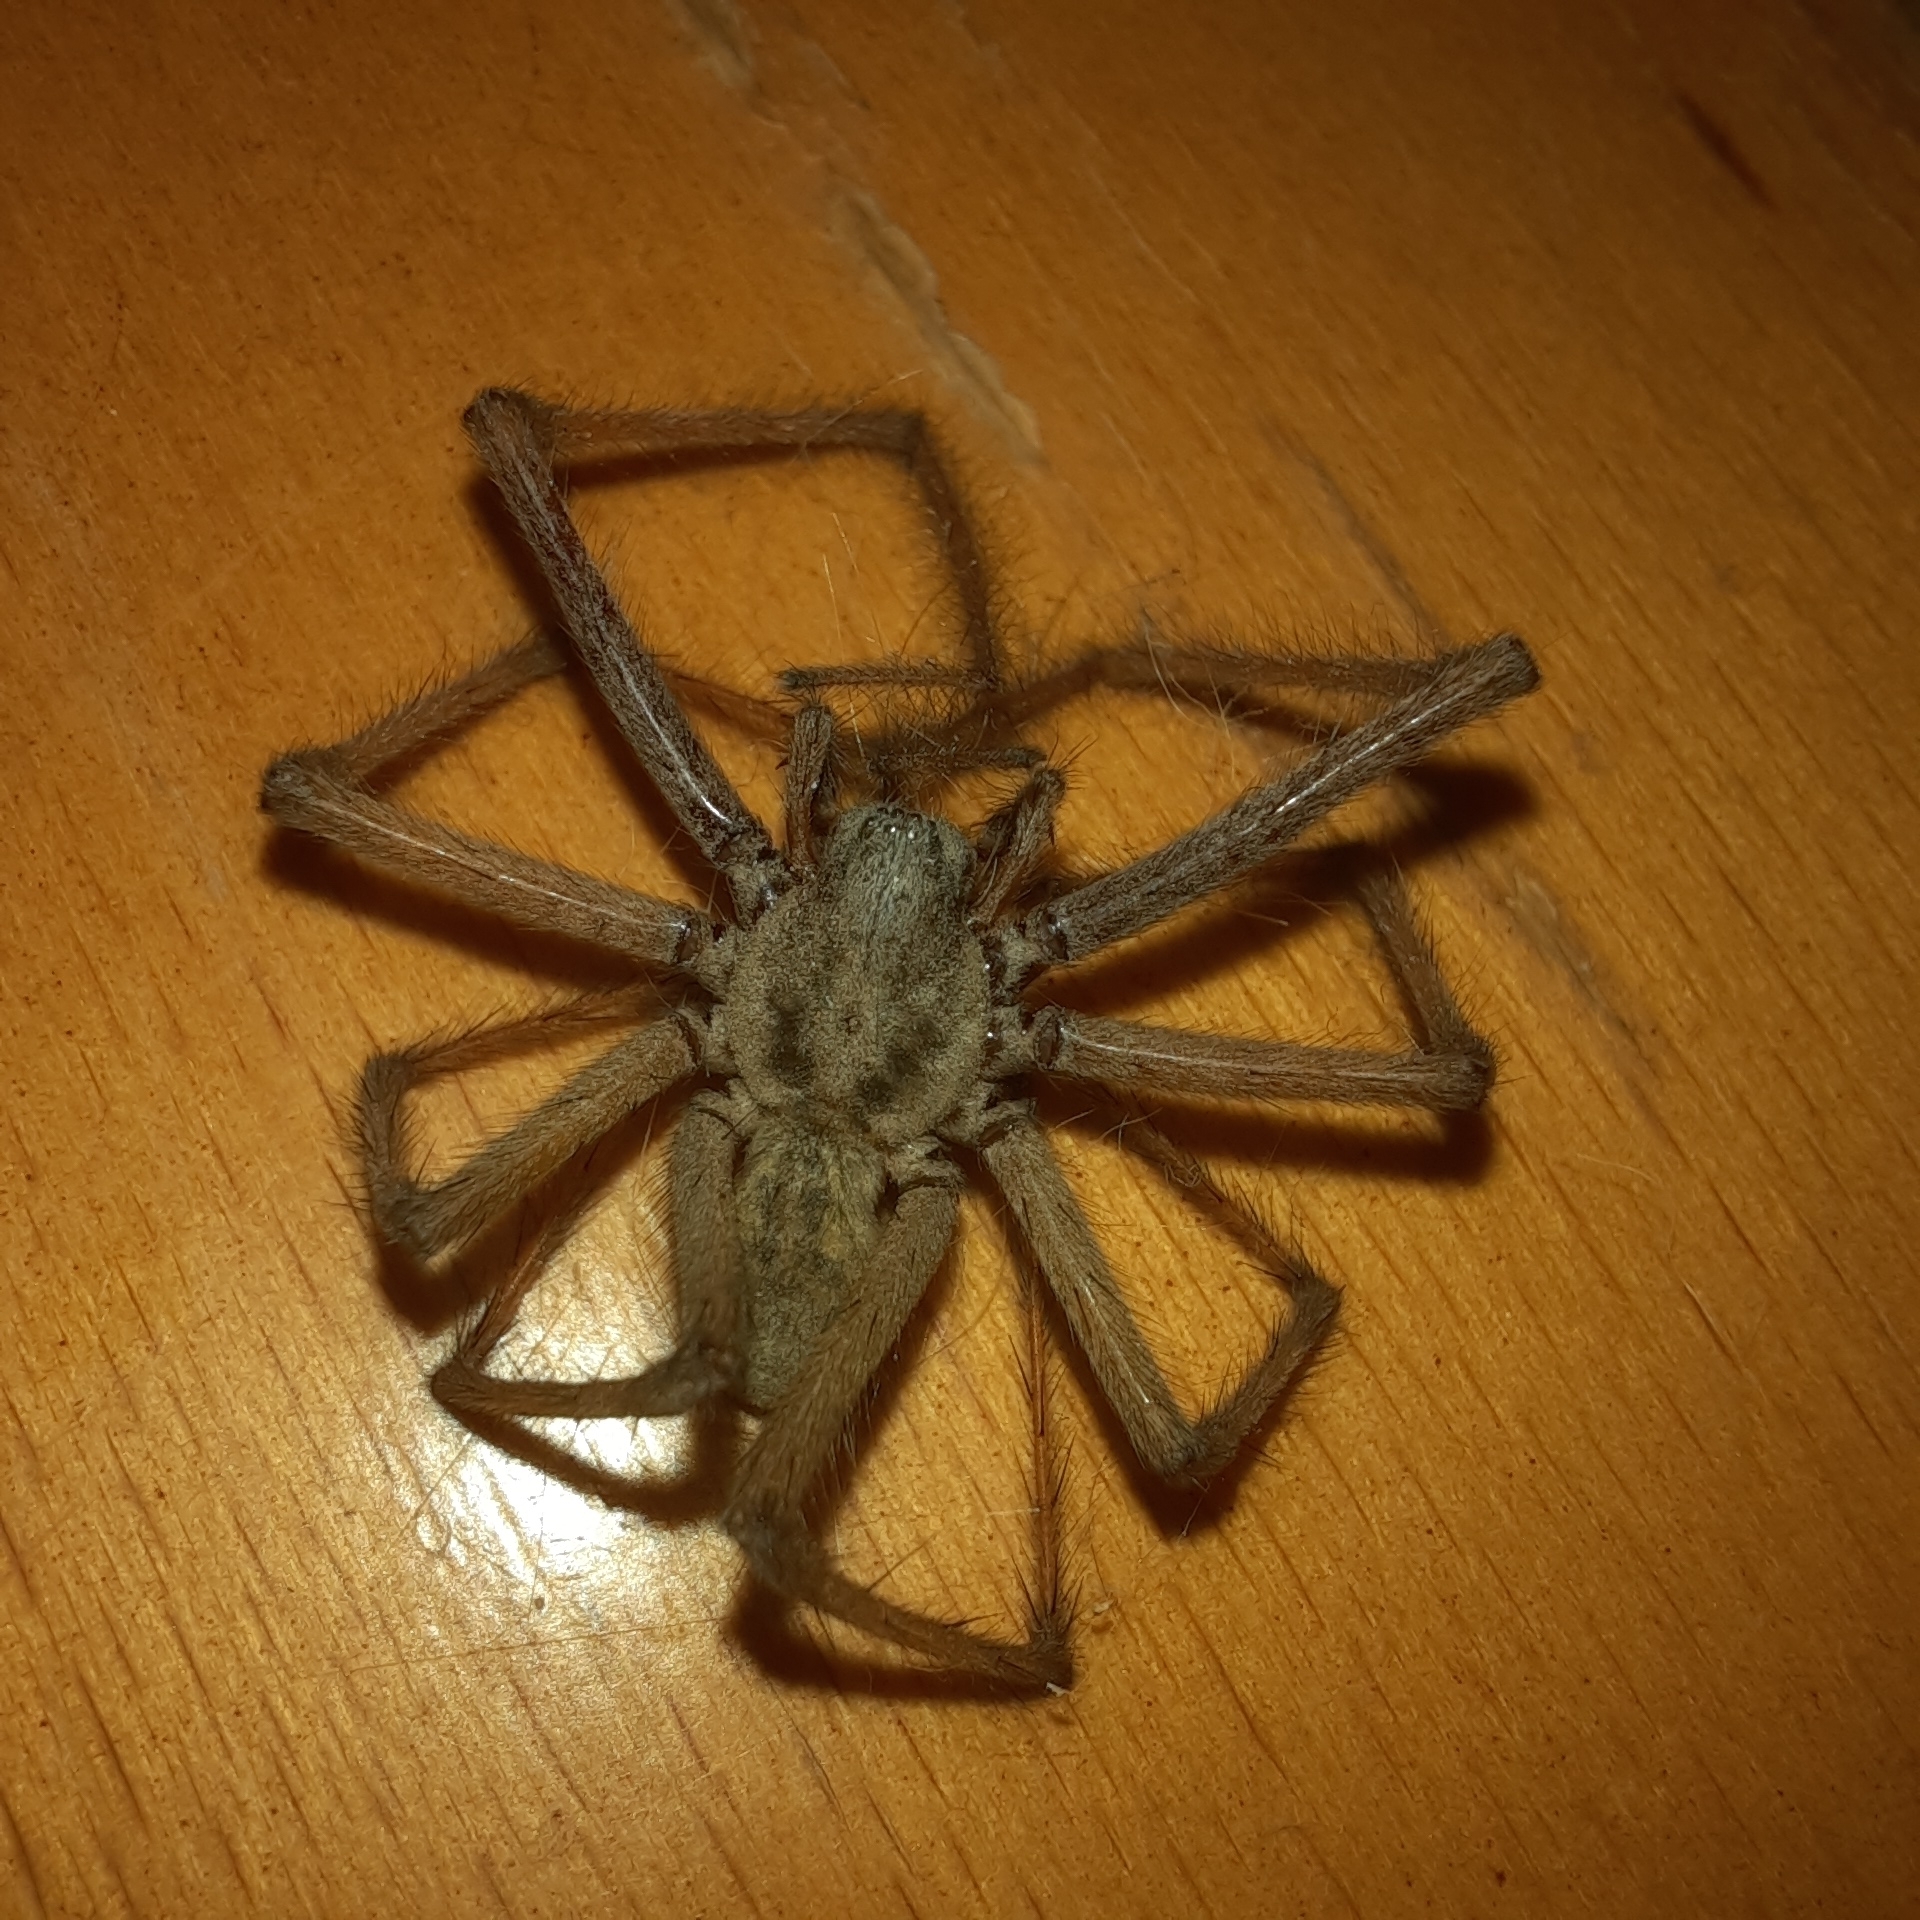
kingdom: Animalia
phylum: Arthropoda
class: Arachnida
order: Araneae
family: Agelenidae
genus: Eratigena
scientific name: Eratigena atrica
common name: Giant house spider
